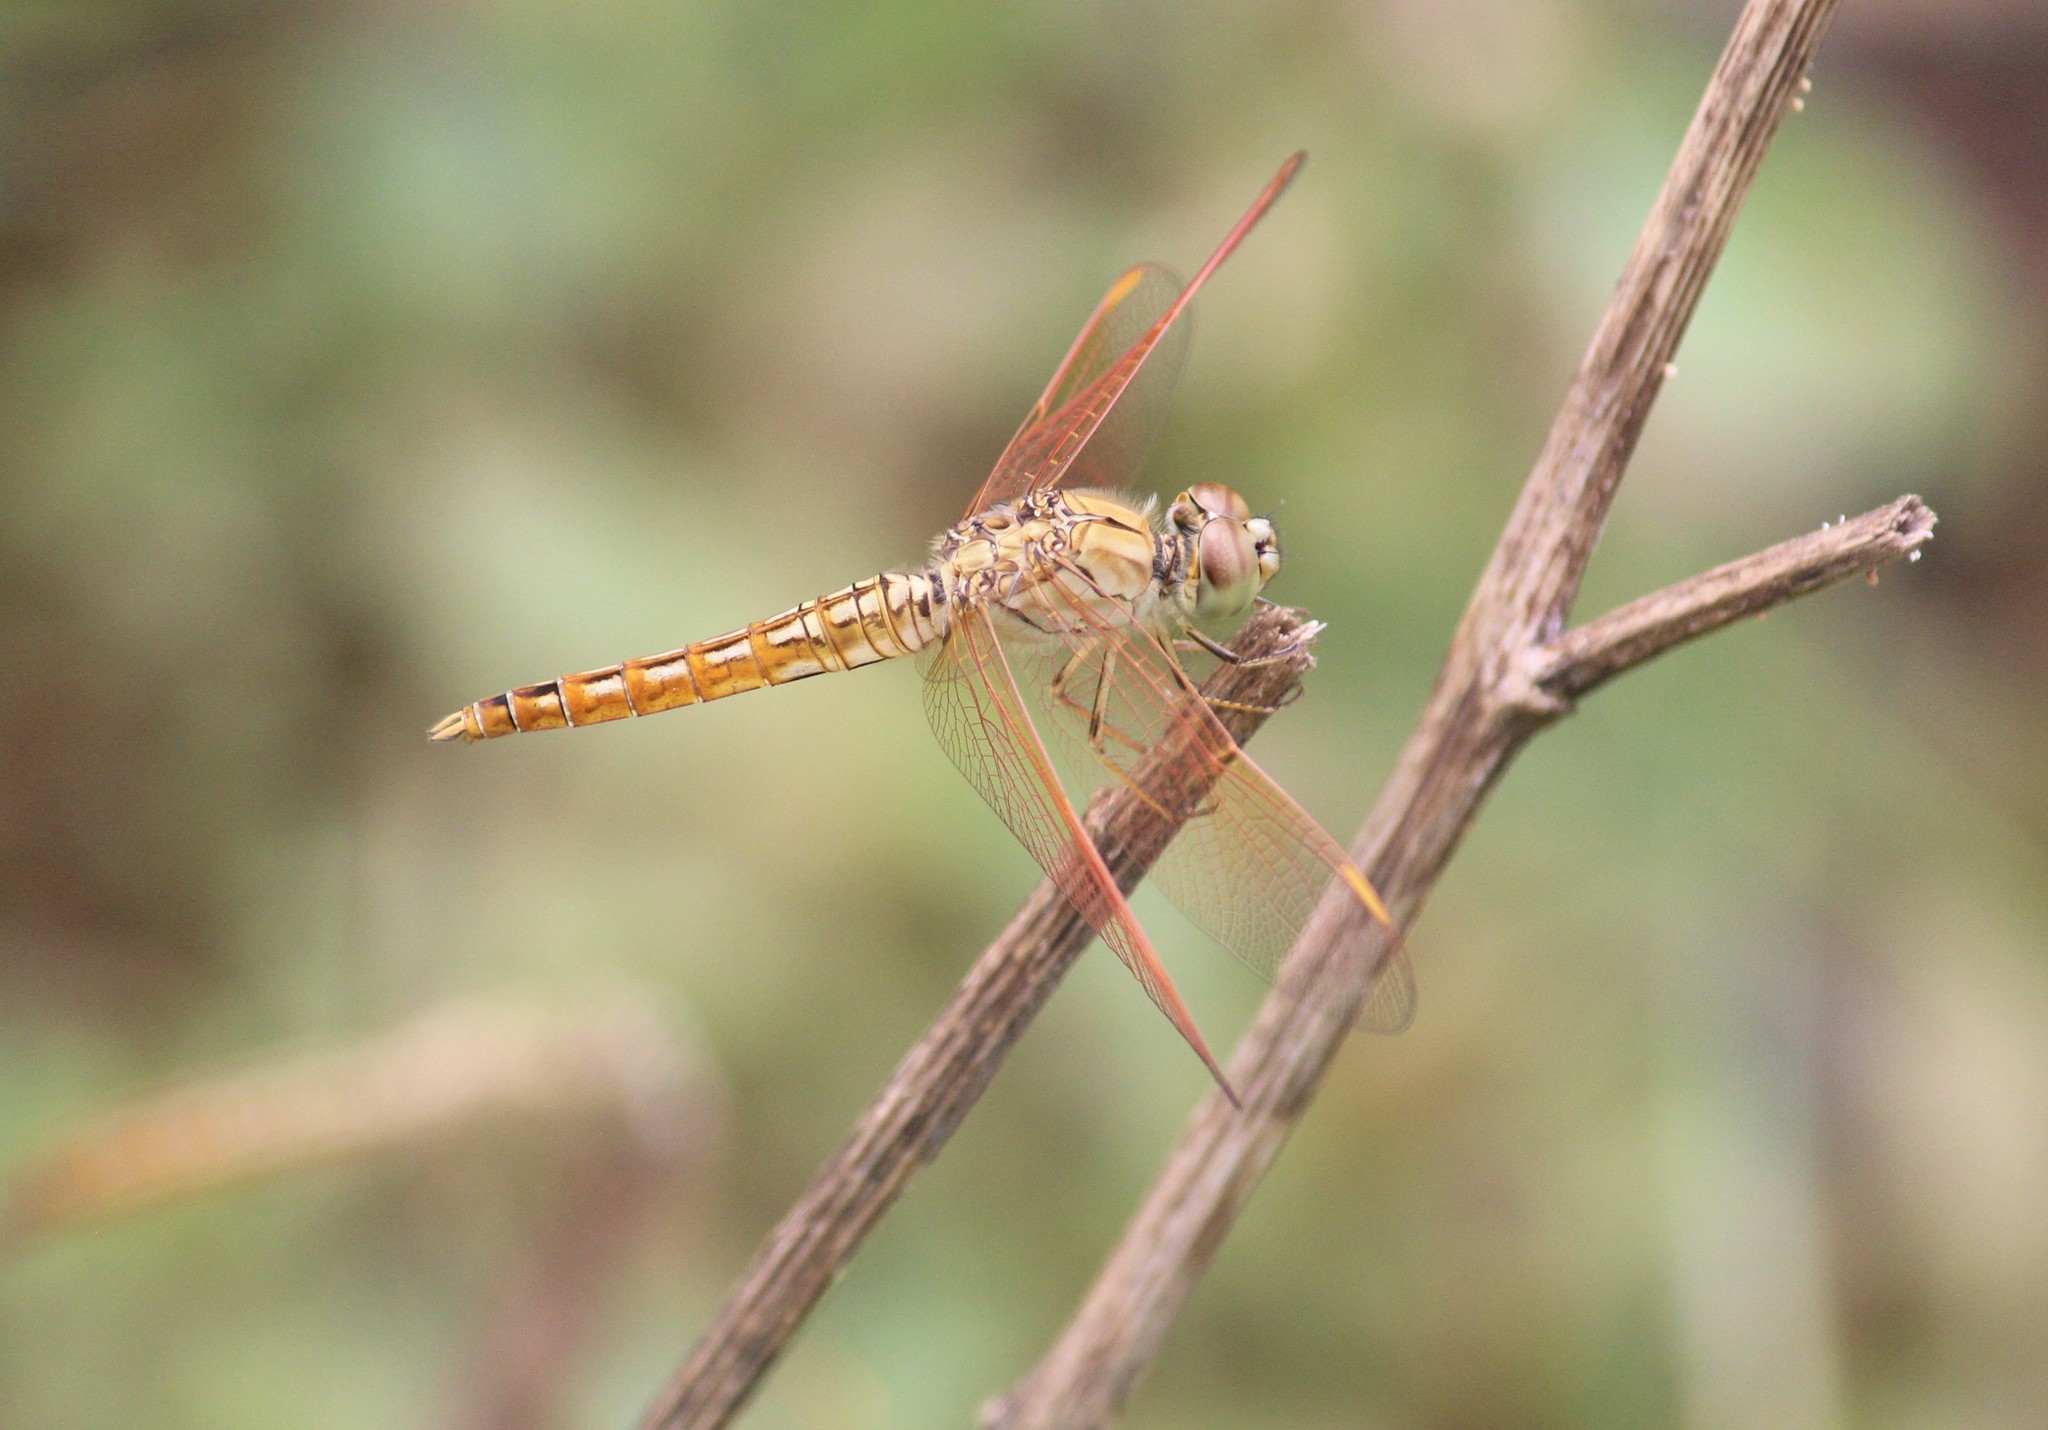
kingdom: Animalia
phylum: Arthropoda
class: Insecta
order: Odonata
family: Libellulidae
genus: Brachythemis
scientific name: Brachythemis contaminata
